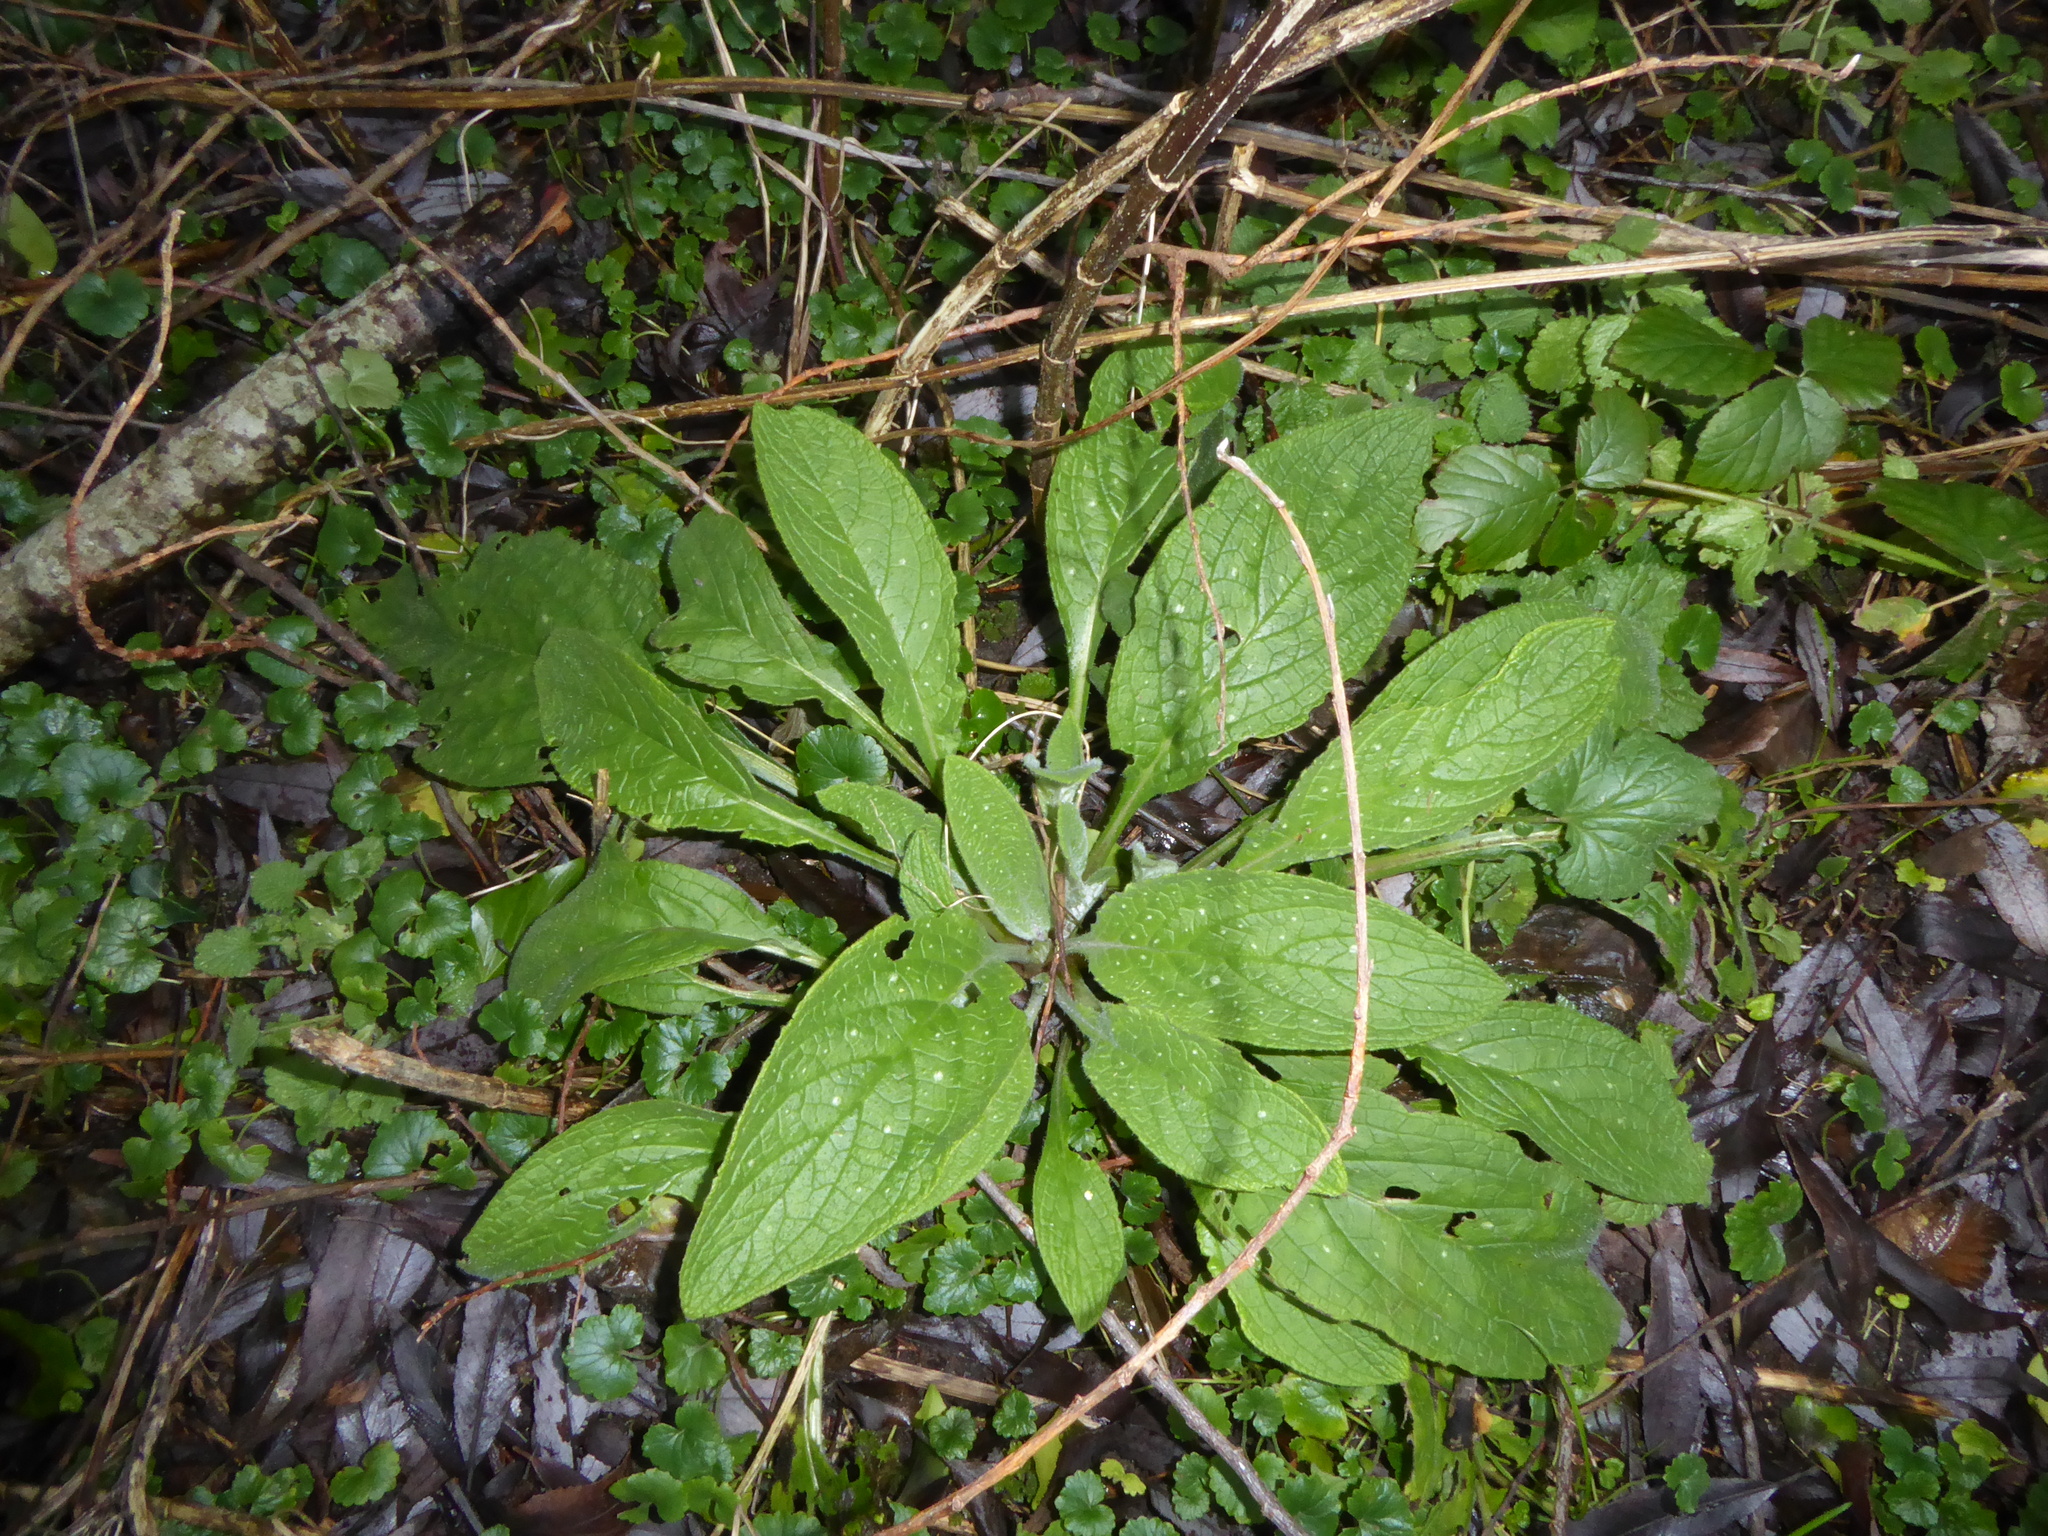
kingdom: Plantae
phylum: Tracheophyta
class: Magnoliopsida
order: Boraginales
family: Boraginaceae
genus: Pentaglottis
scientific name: Pentaglottis sempervirens
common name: Green alkanet
